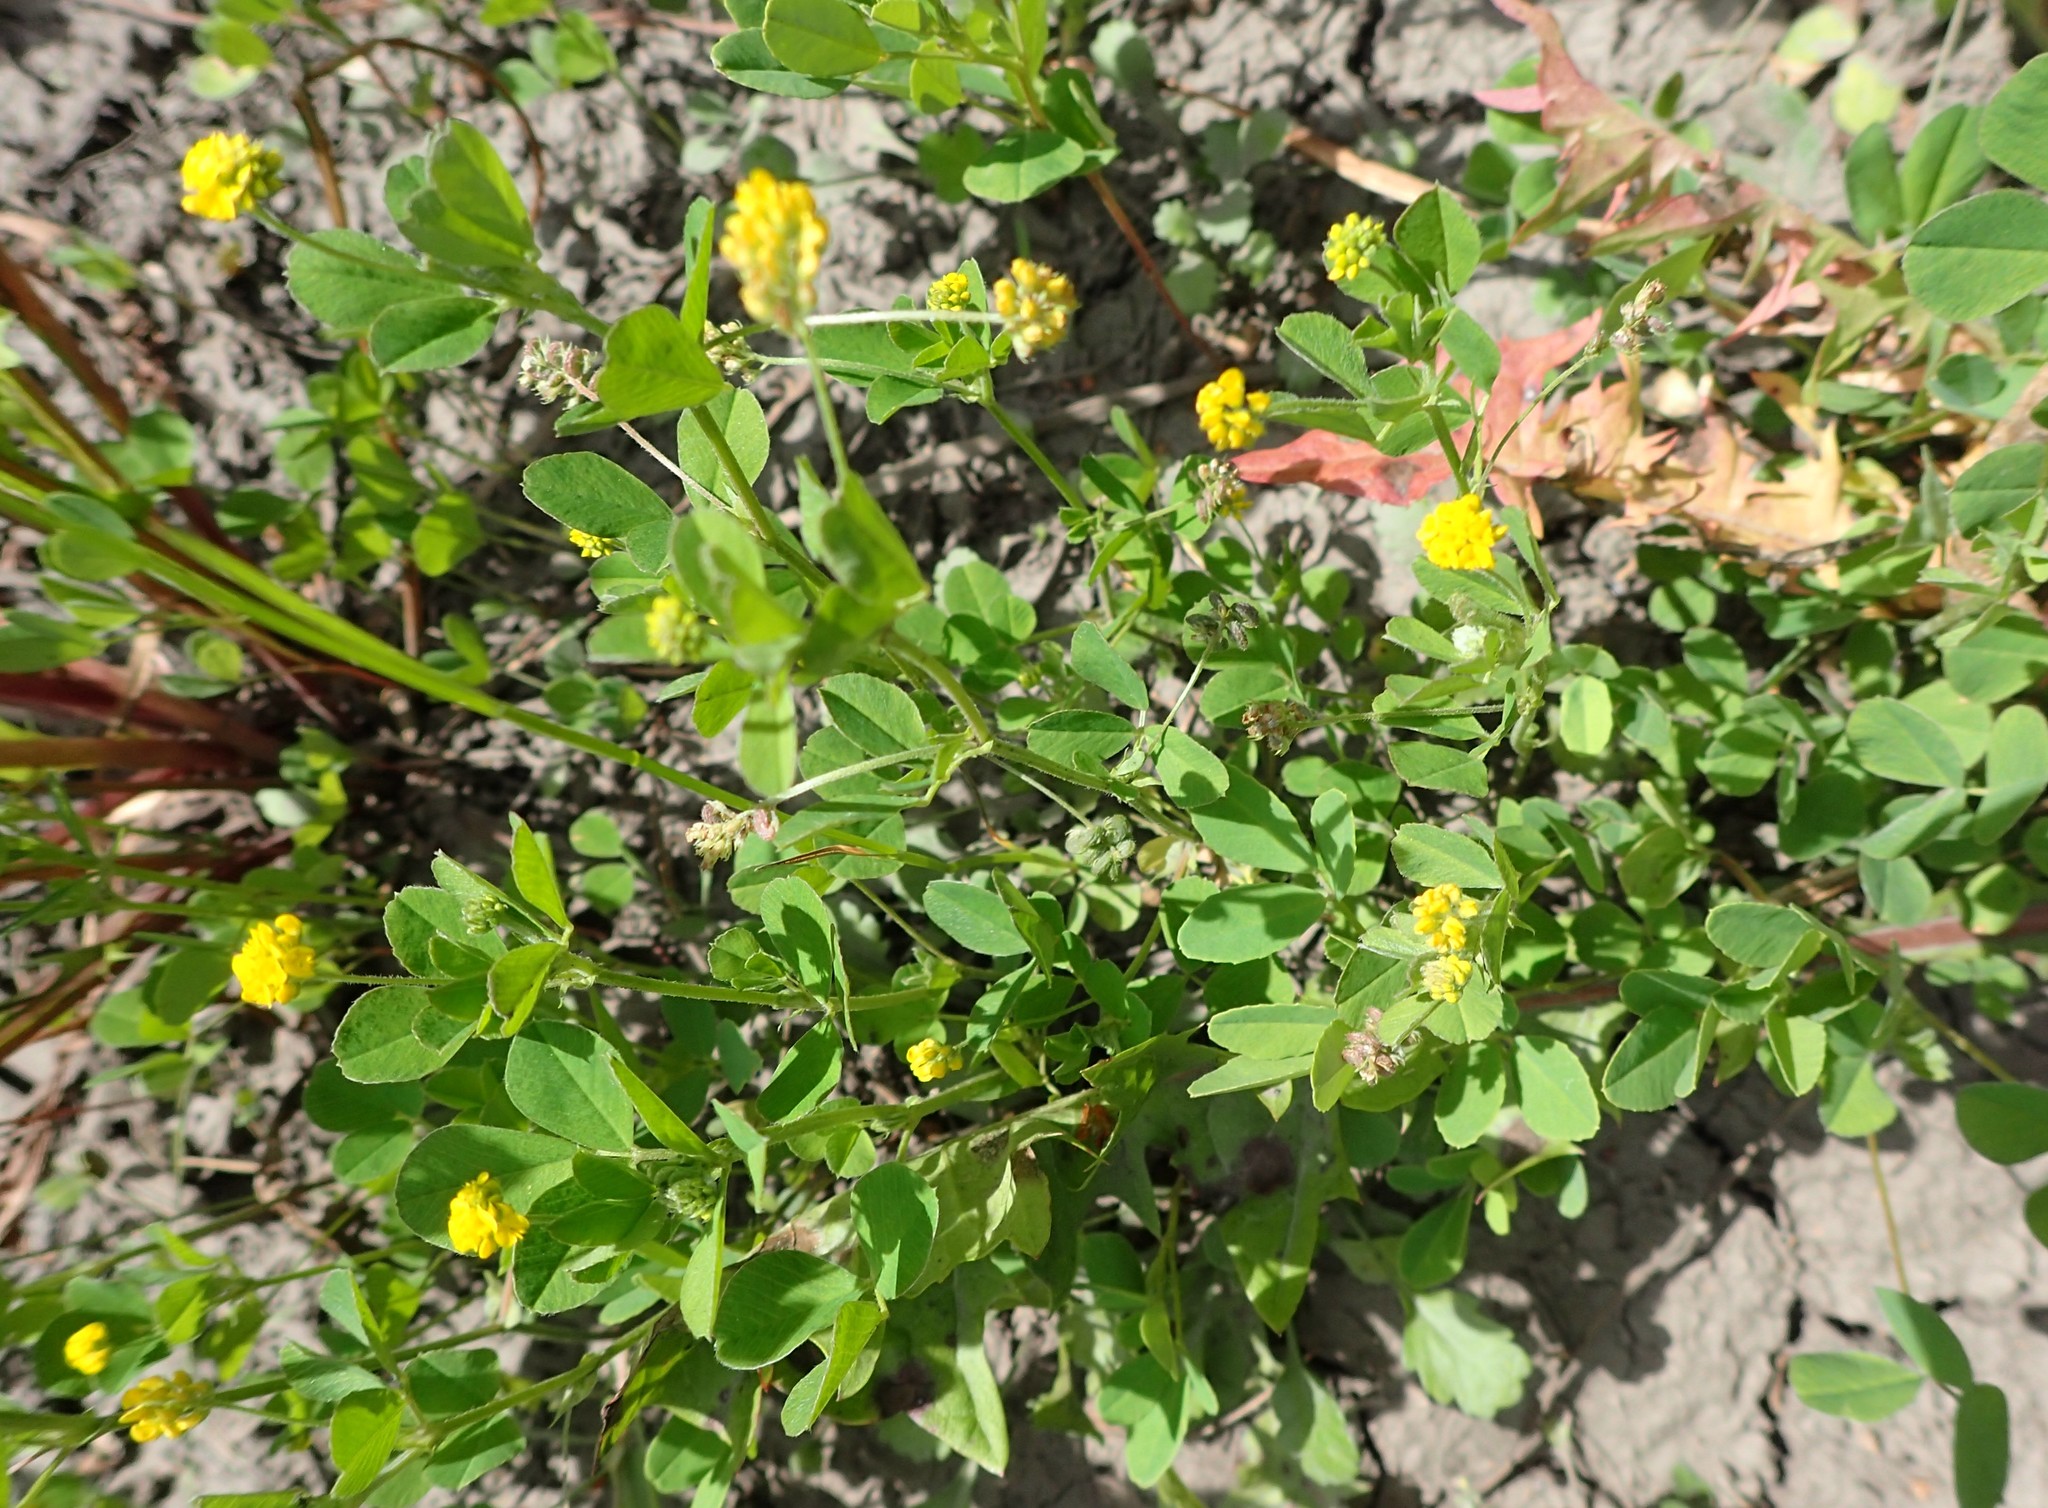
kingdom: Plantae
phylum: Tracheophyta
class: Magnoliopsida
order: Fabales
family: Fabaceae
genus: Medicago
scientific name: Medicago lupulina
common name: Black medick
